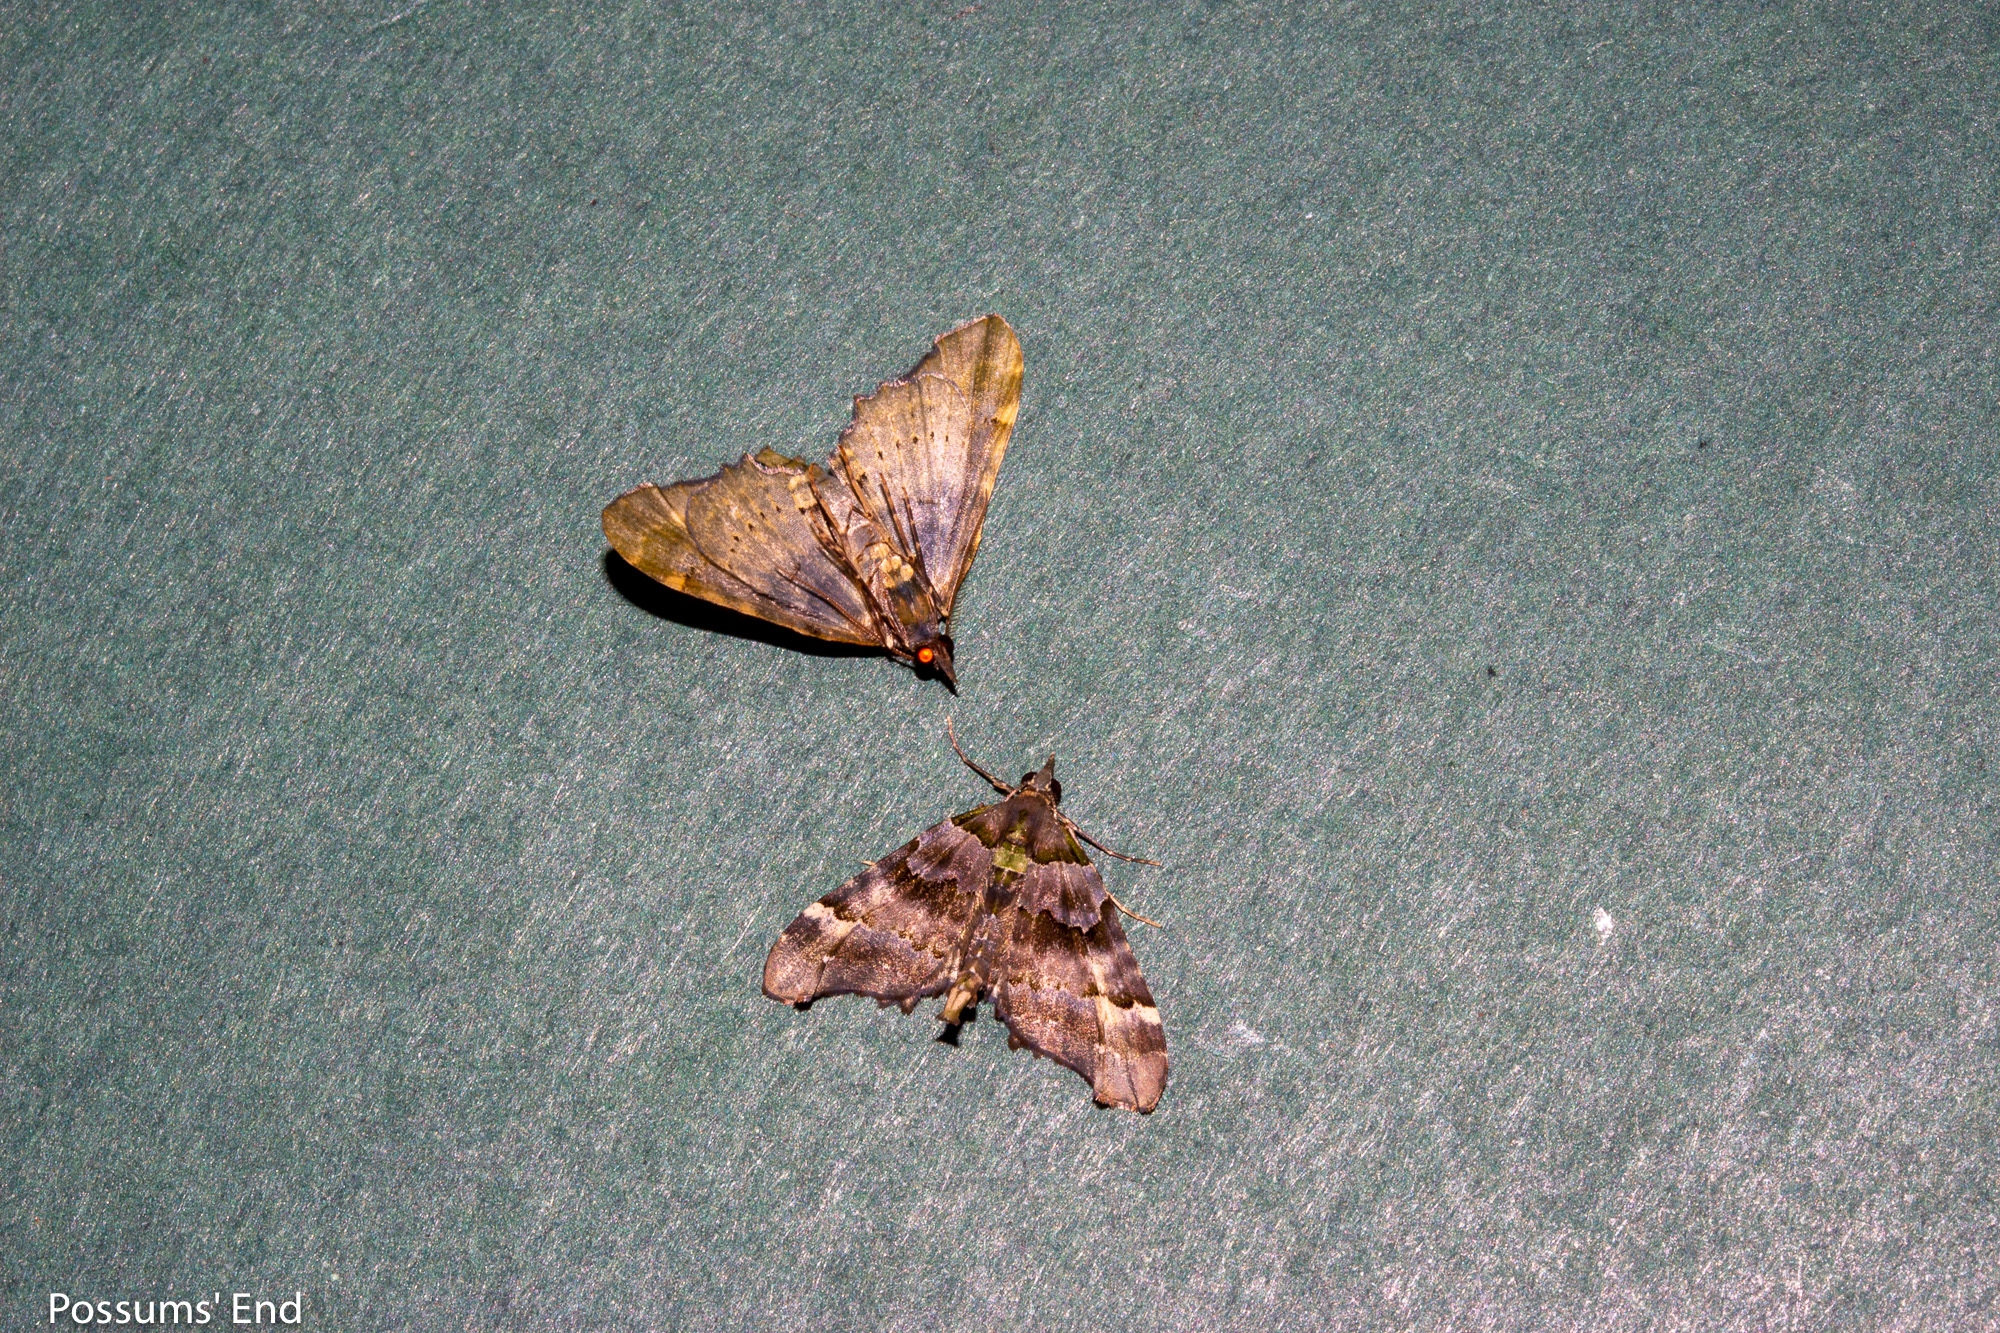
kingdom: Animalia
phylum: Arthropoda
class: Insecta
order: Lepidoptera
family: Geometridae
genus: Elvia
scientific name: Elvia glaucata
